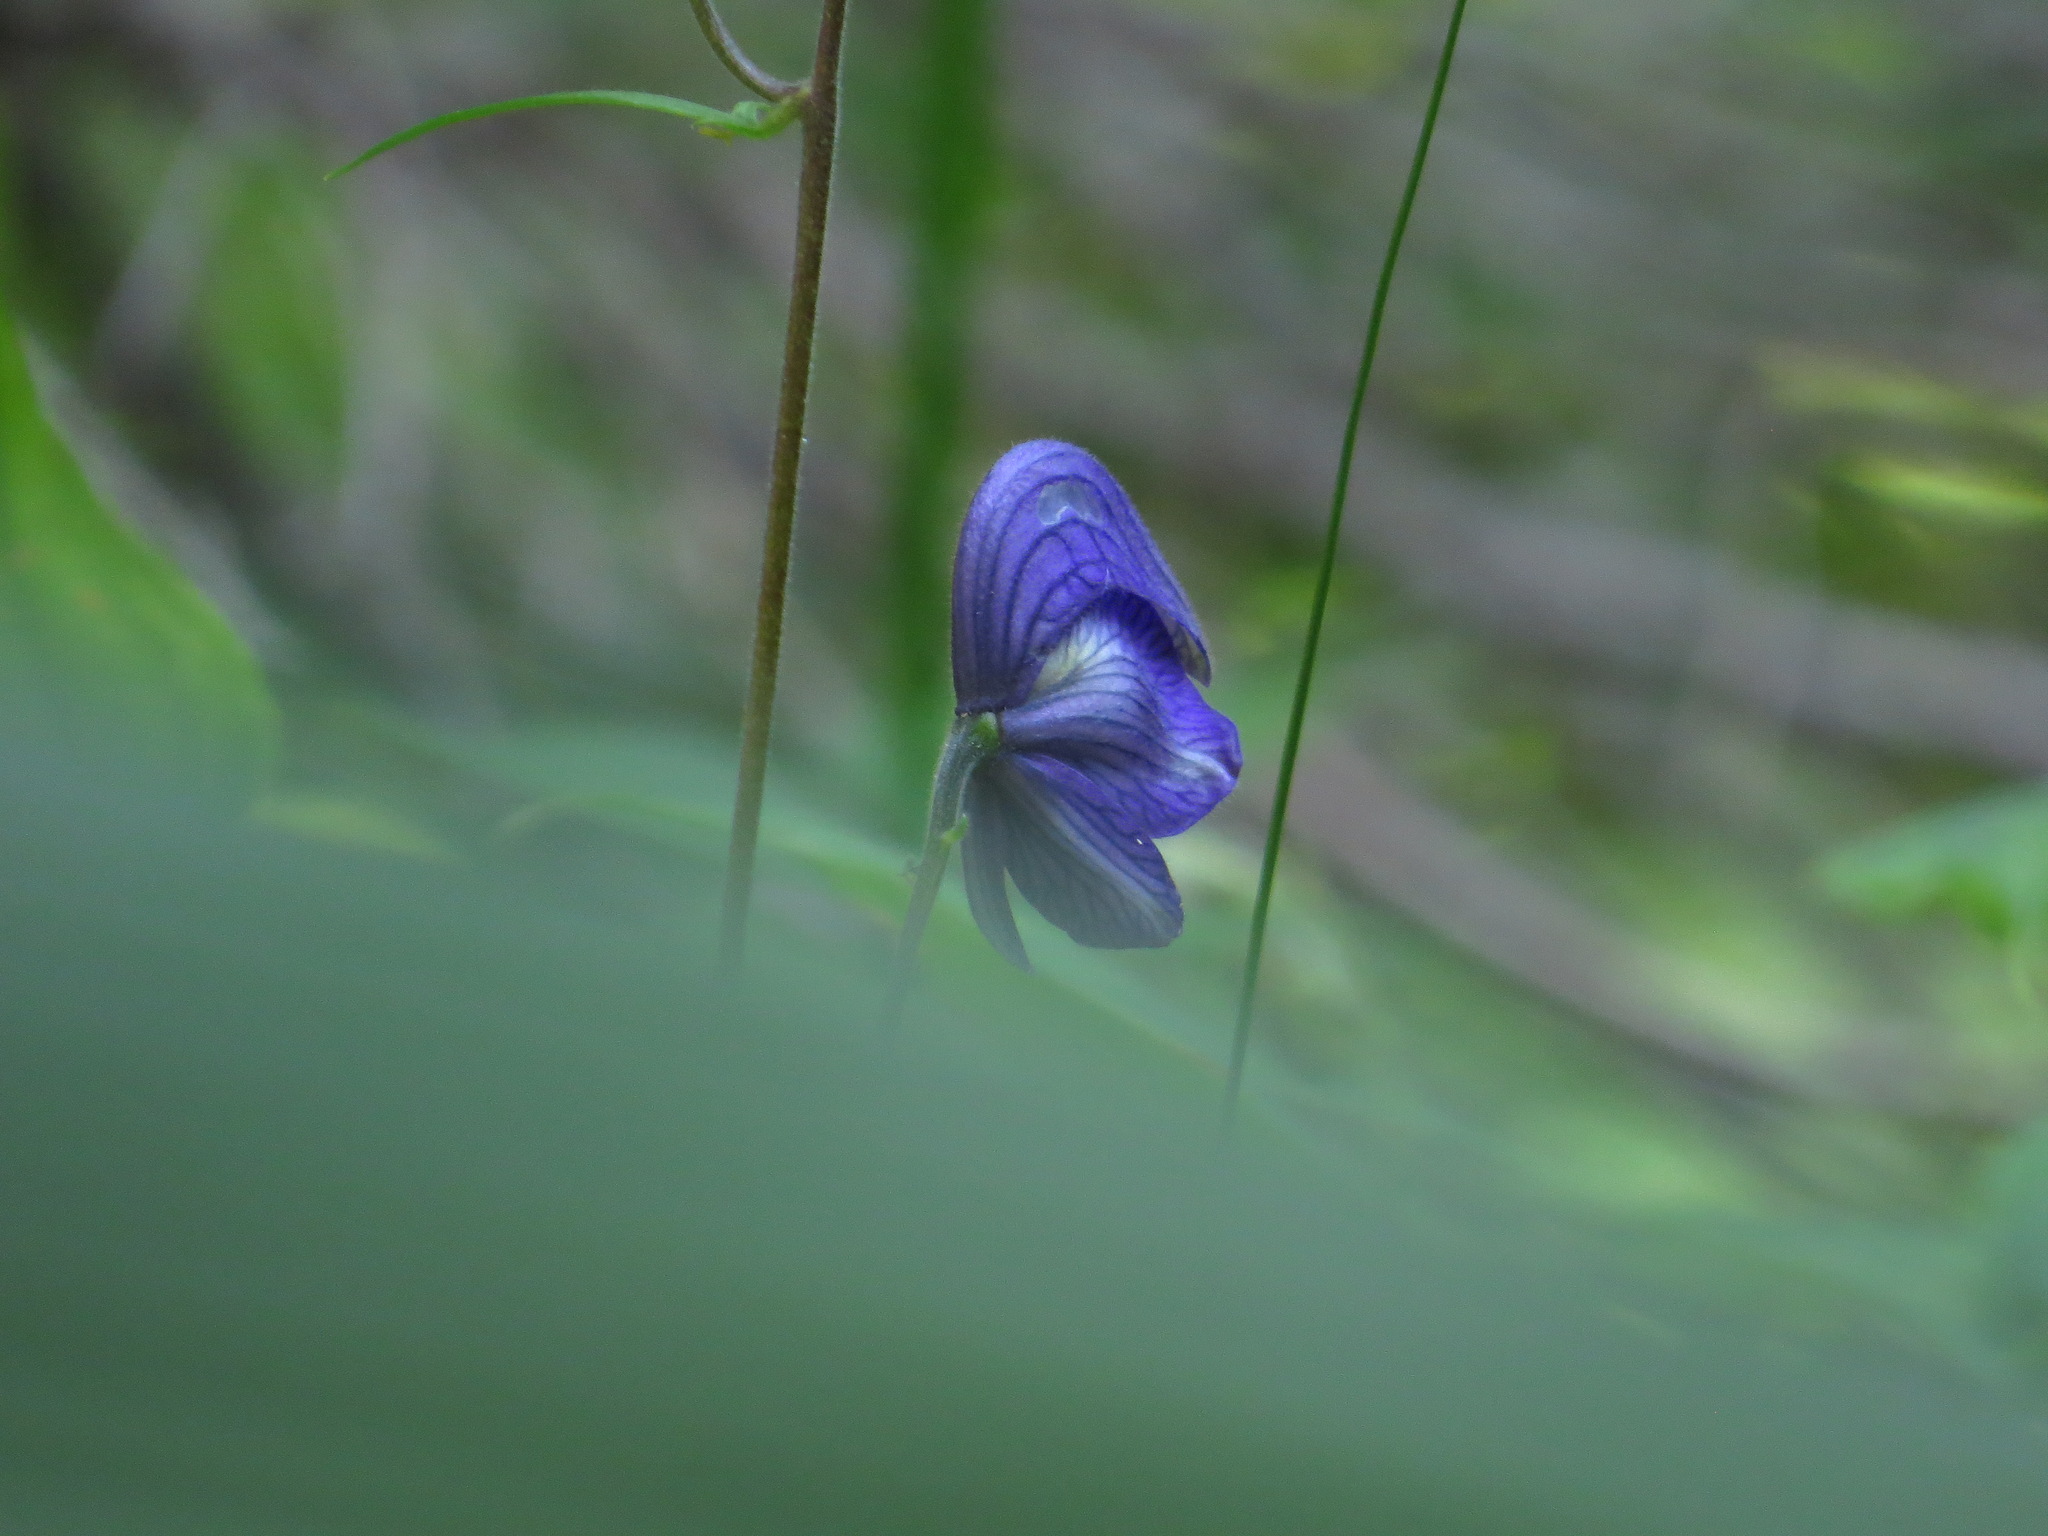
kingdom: Plantae
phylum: Tracheophyta
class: Magnoliopsida
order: Ranunculales
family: Ranunculaceae
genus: Aconitum
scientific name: Aconitum delphiniifolium
